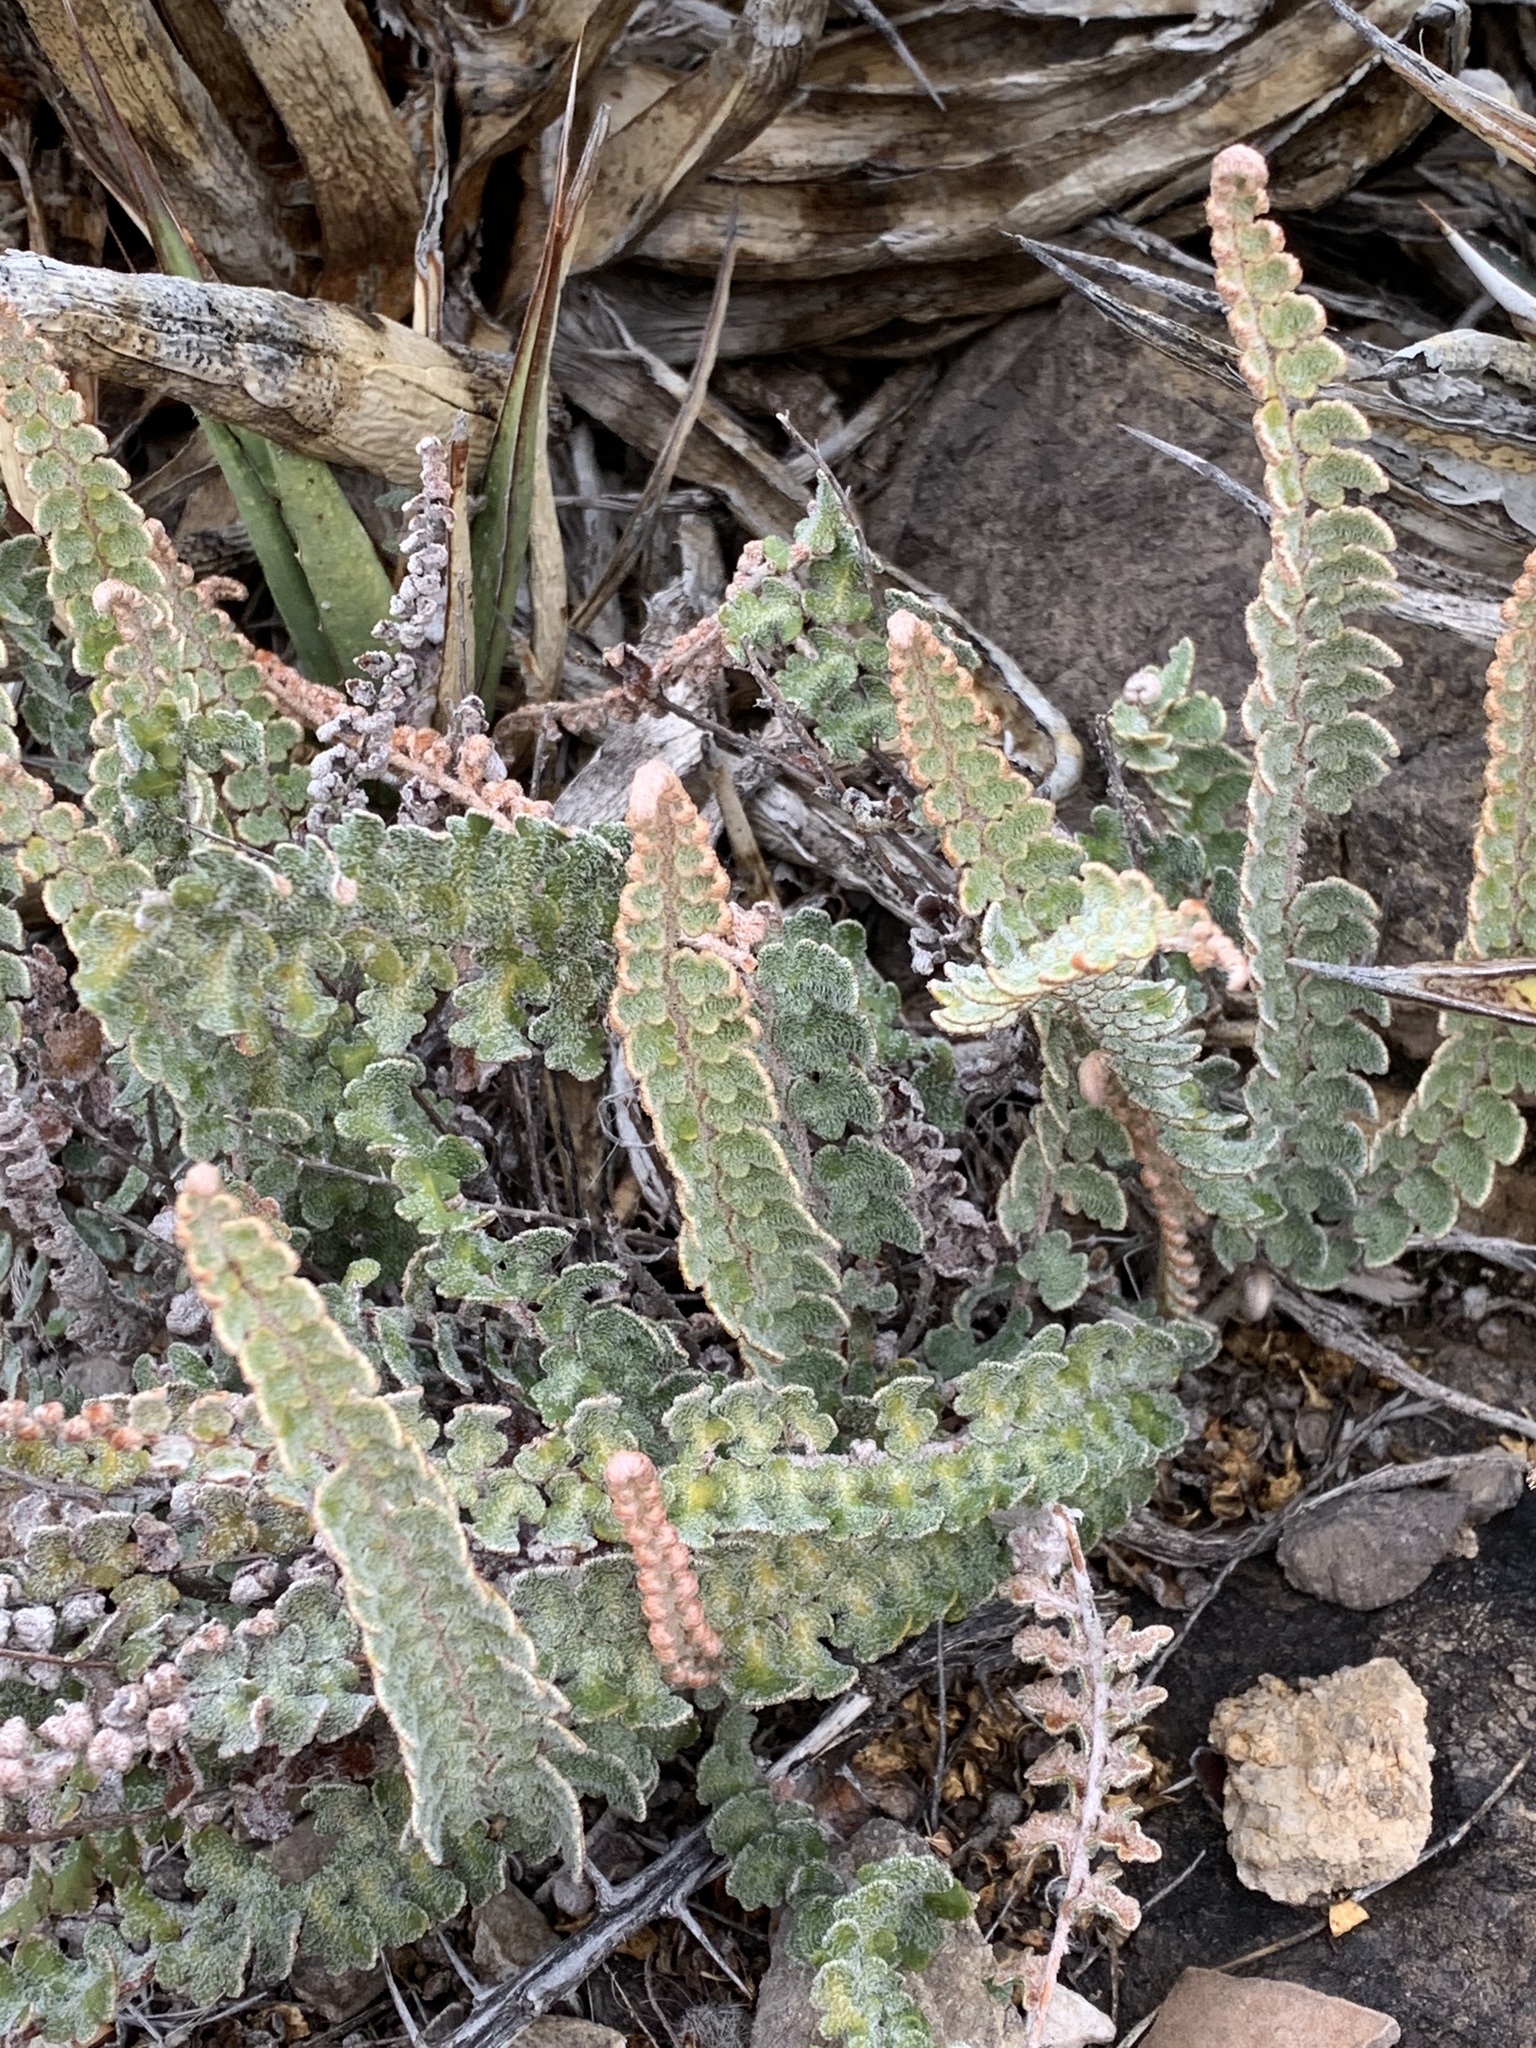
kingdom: Plantae
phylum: Tracheophyta
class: Polypodiopsida
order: Polypodiales
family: Pteridaceae
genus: Astrolepis
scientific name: Astrolepis integerrima
